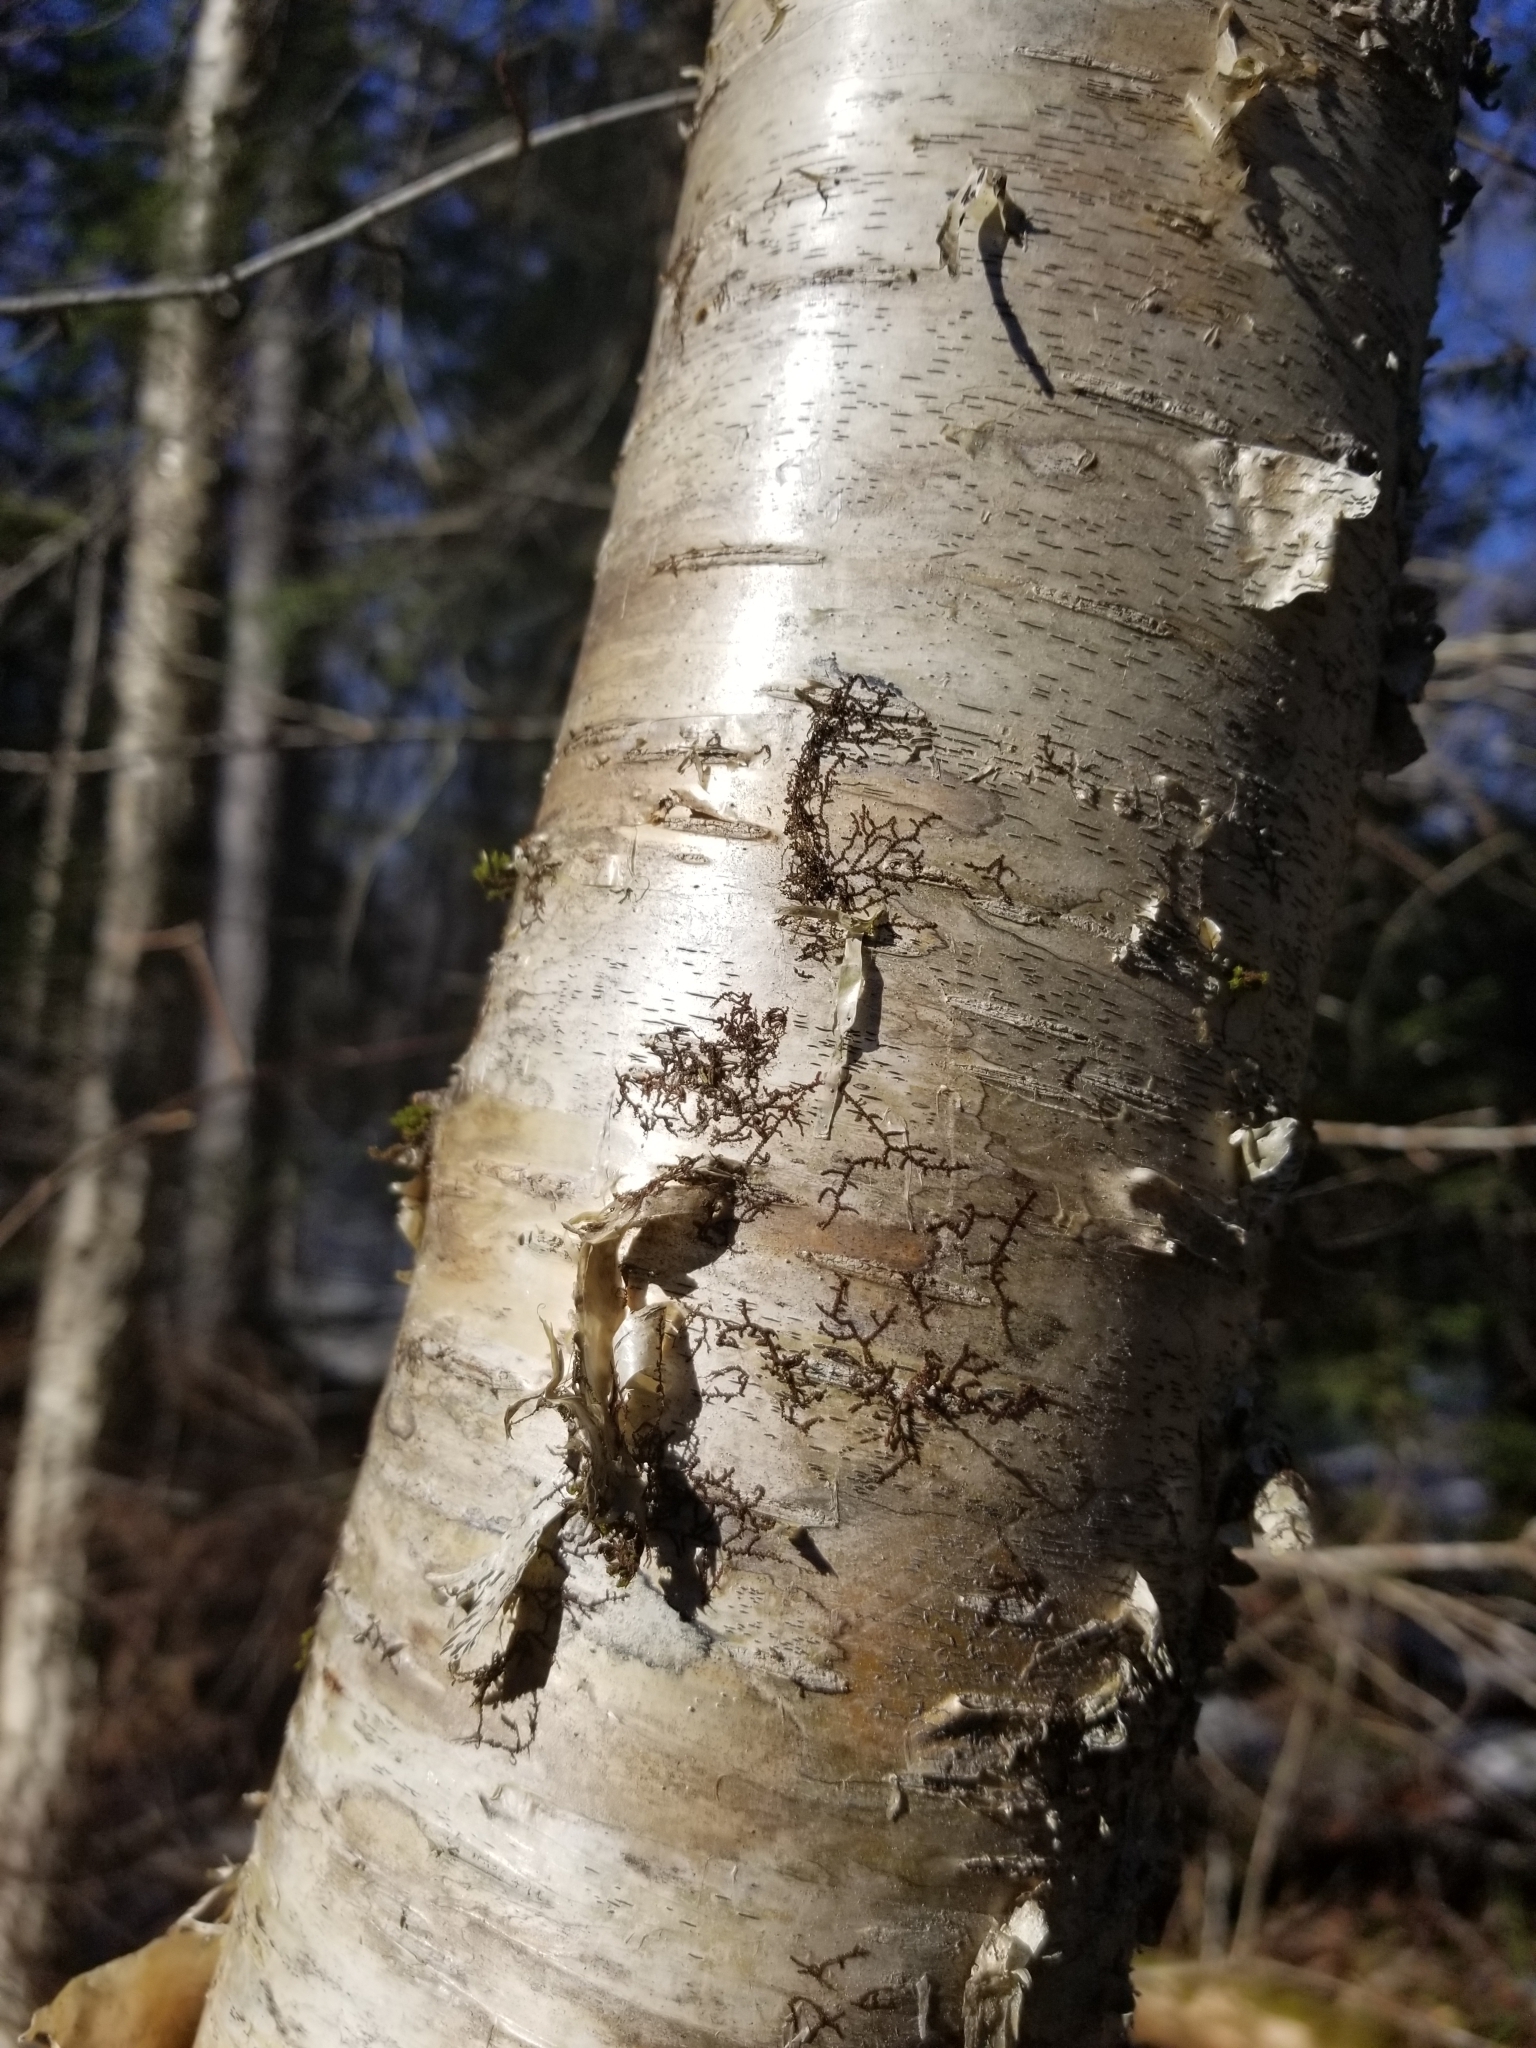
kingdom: Plantae
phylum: Marchantiophyta
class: Jungermanniopsida
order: Porellales
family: Frullaniaceae
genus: Frullania
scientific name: Frullania eboracensis
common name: New york scalewort
